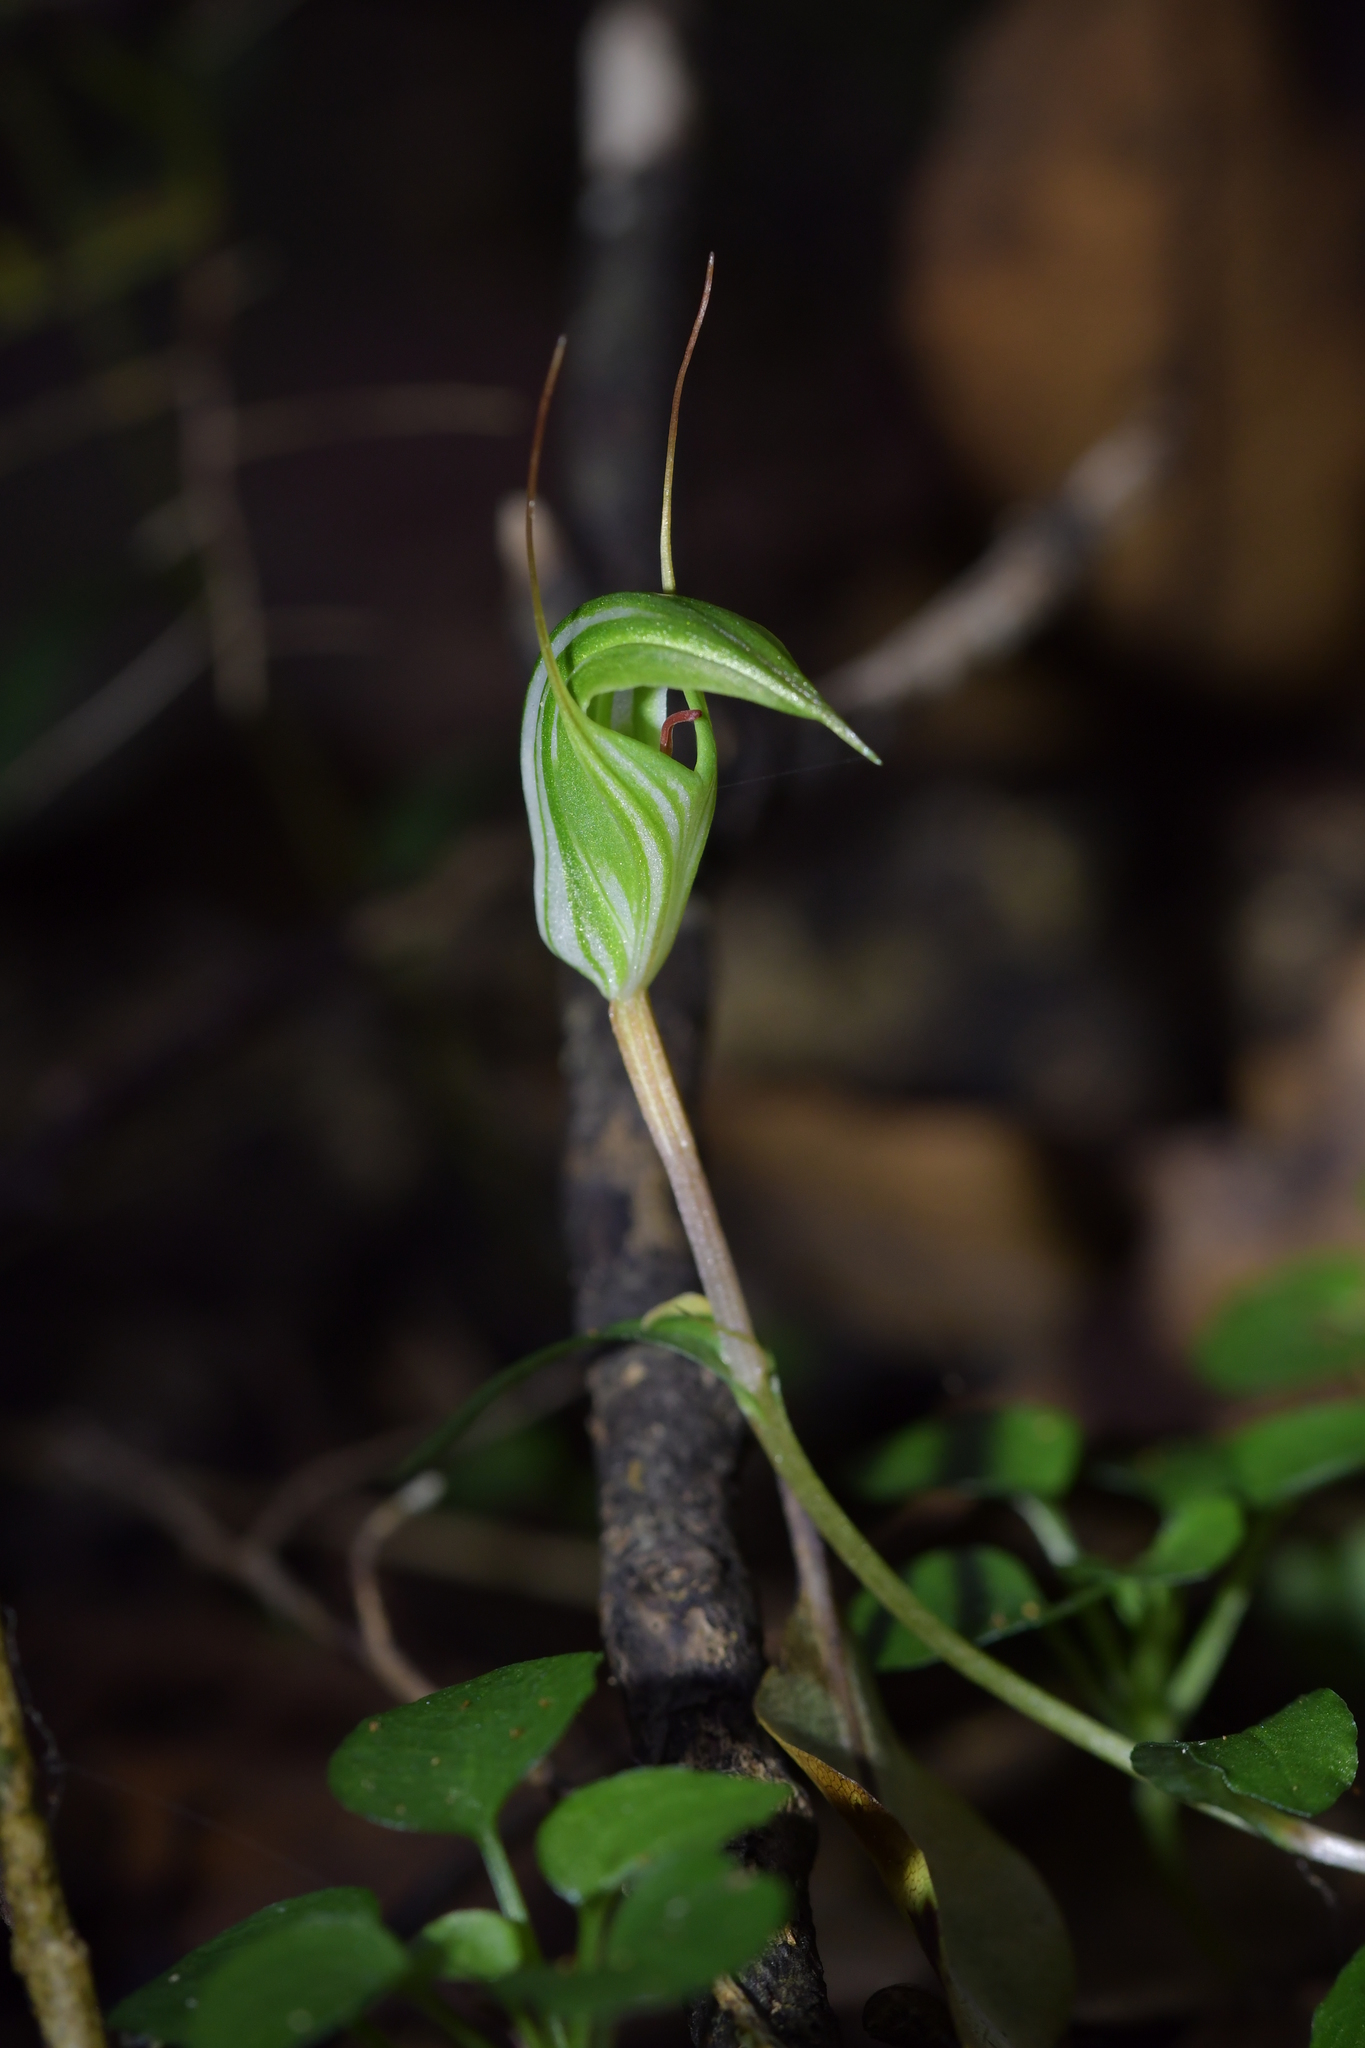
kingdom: Plantae
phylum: Tracheophyta
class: Liliopsida
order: Asparagales
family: Orchidaceae
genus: Pterostylis
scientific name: Pterostylis alobula
